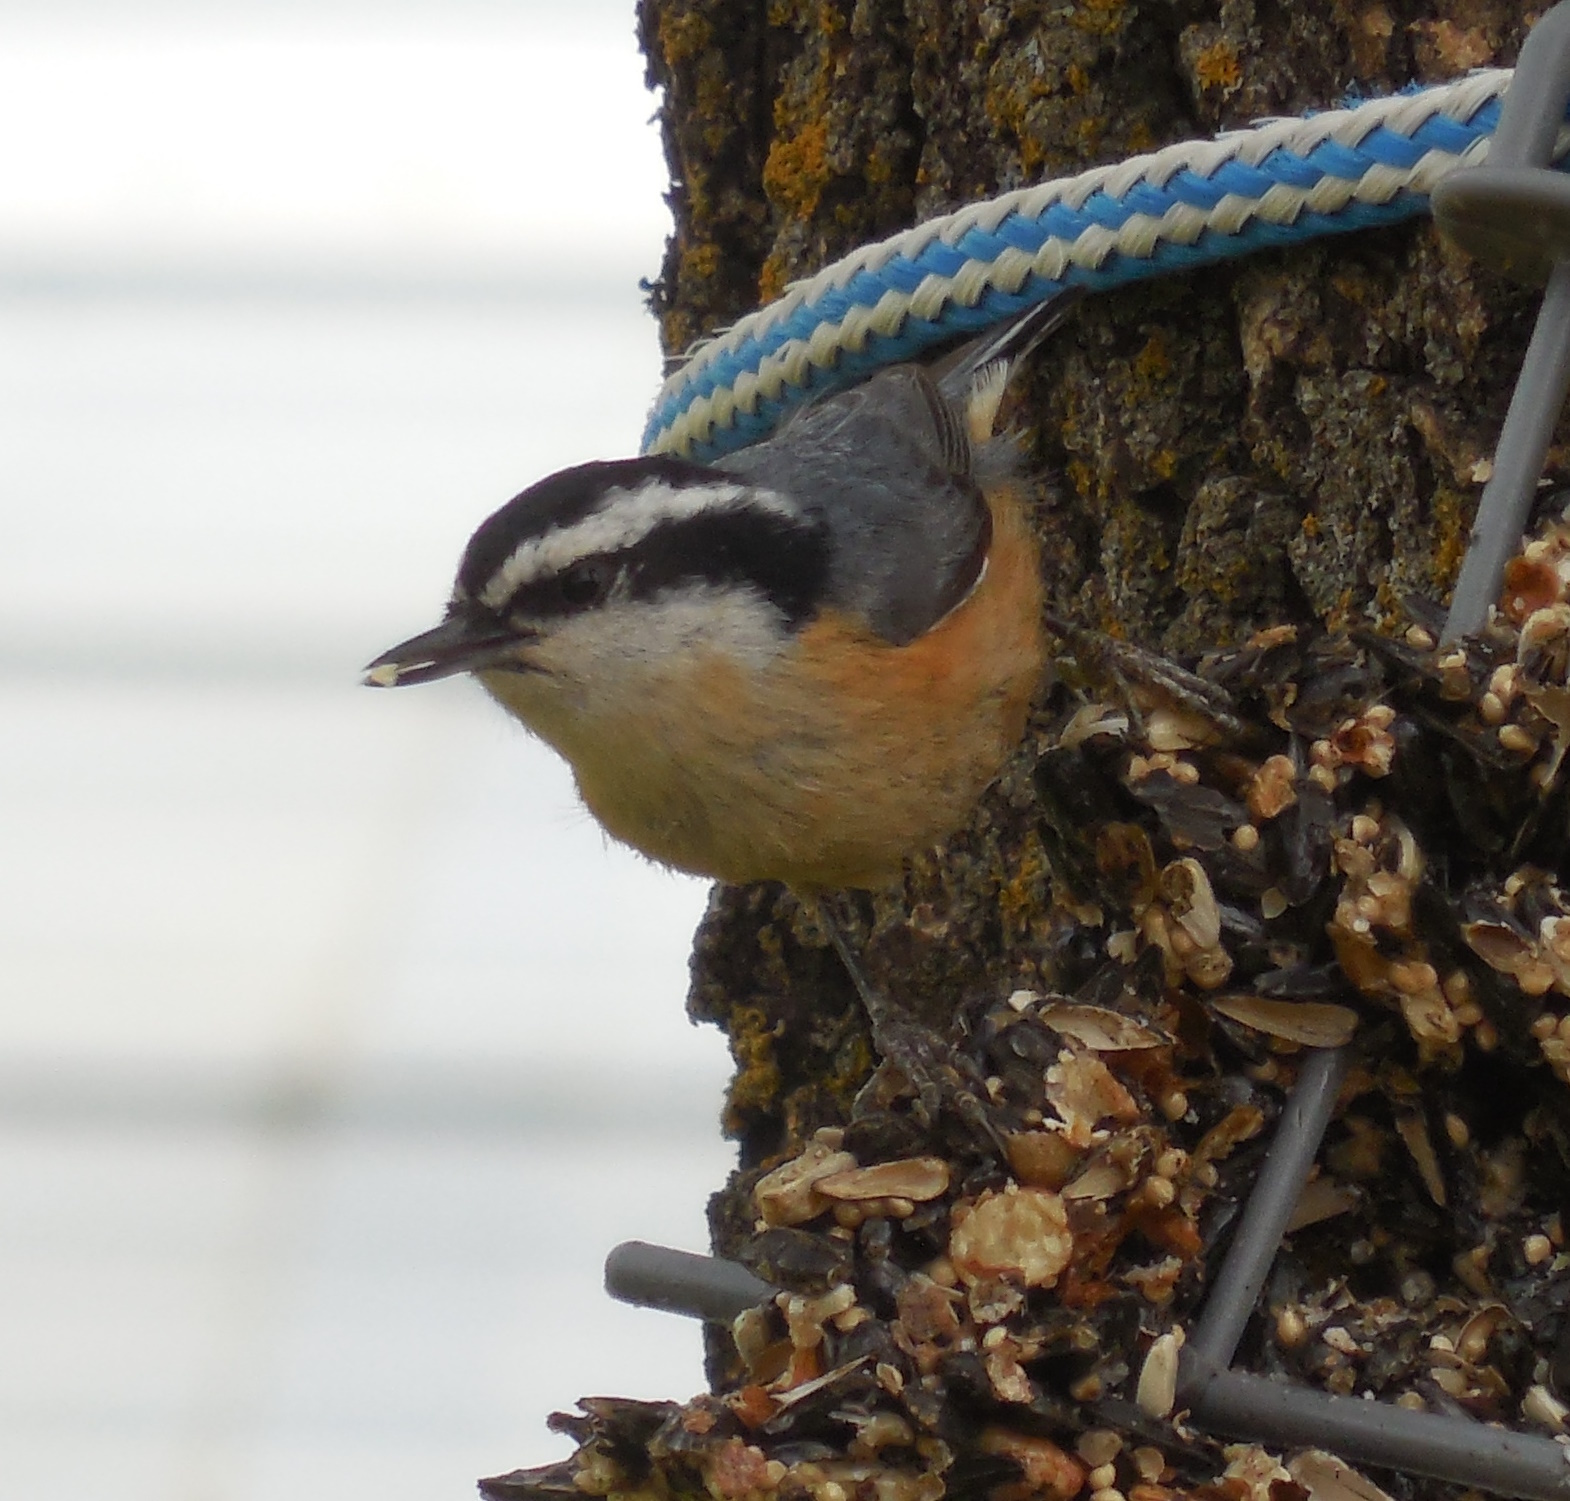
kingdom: Animalia
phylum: Chordata
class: Aves
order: Passeriformes
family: Sittidae
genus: Sitta
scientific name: Sitta canadensis
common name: Red-breasted nuthatch
